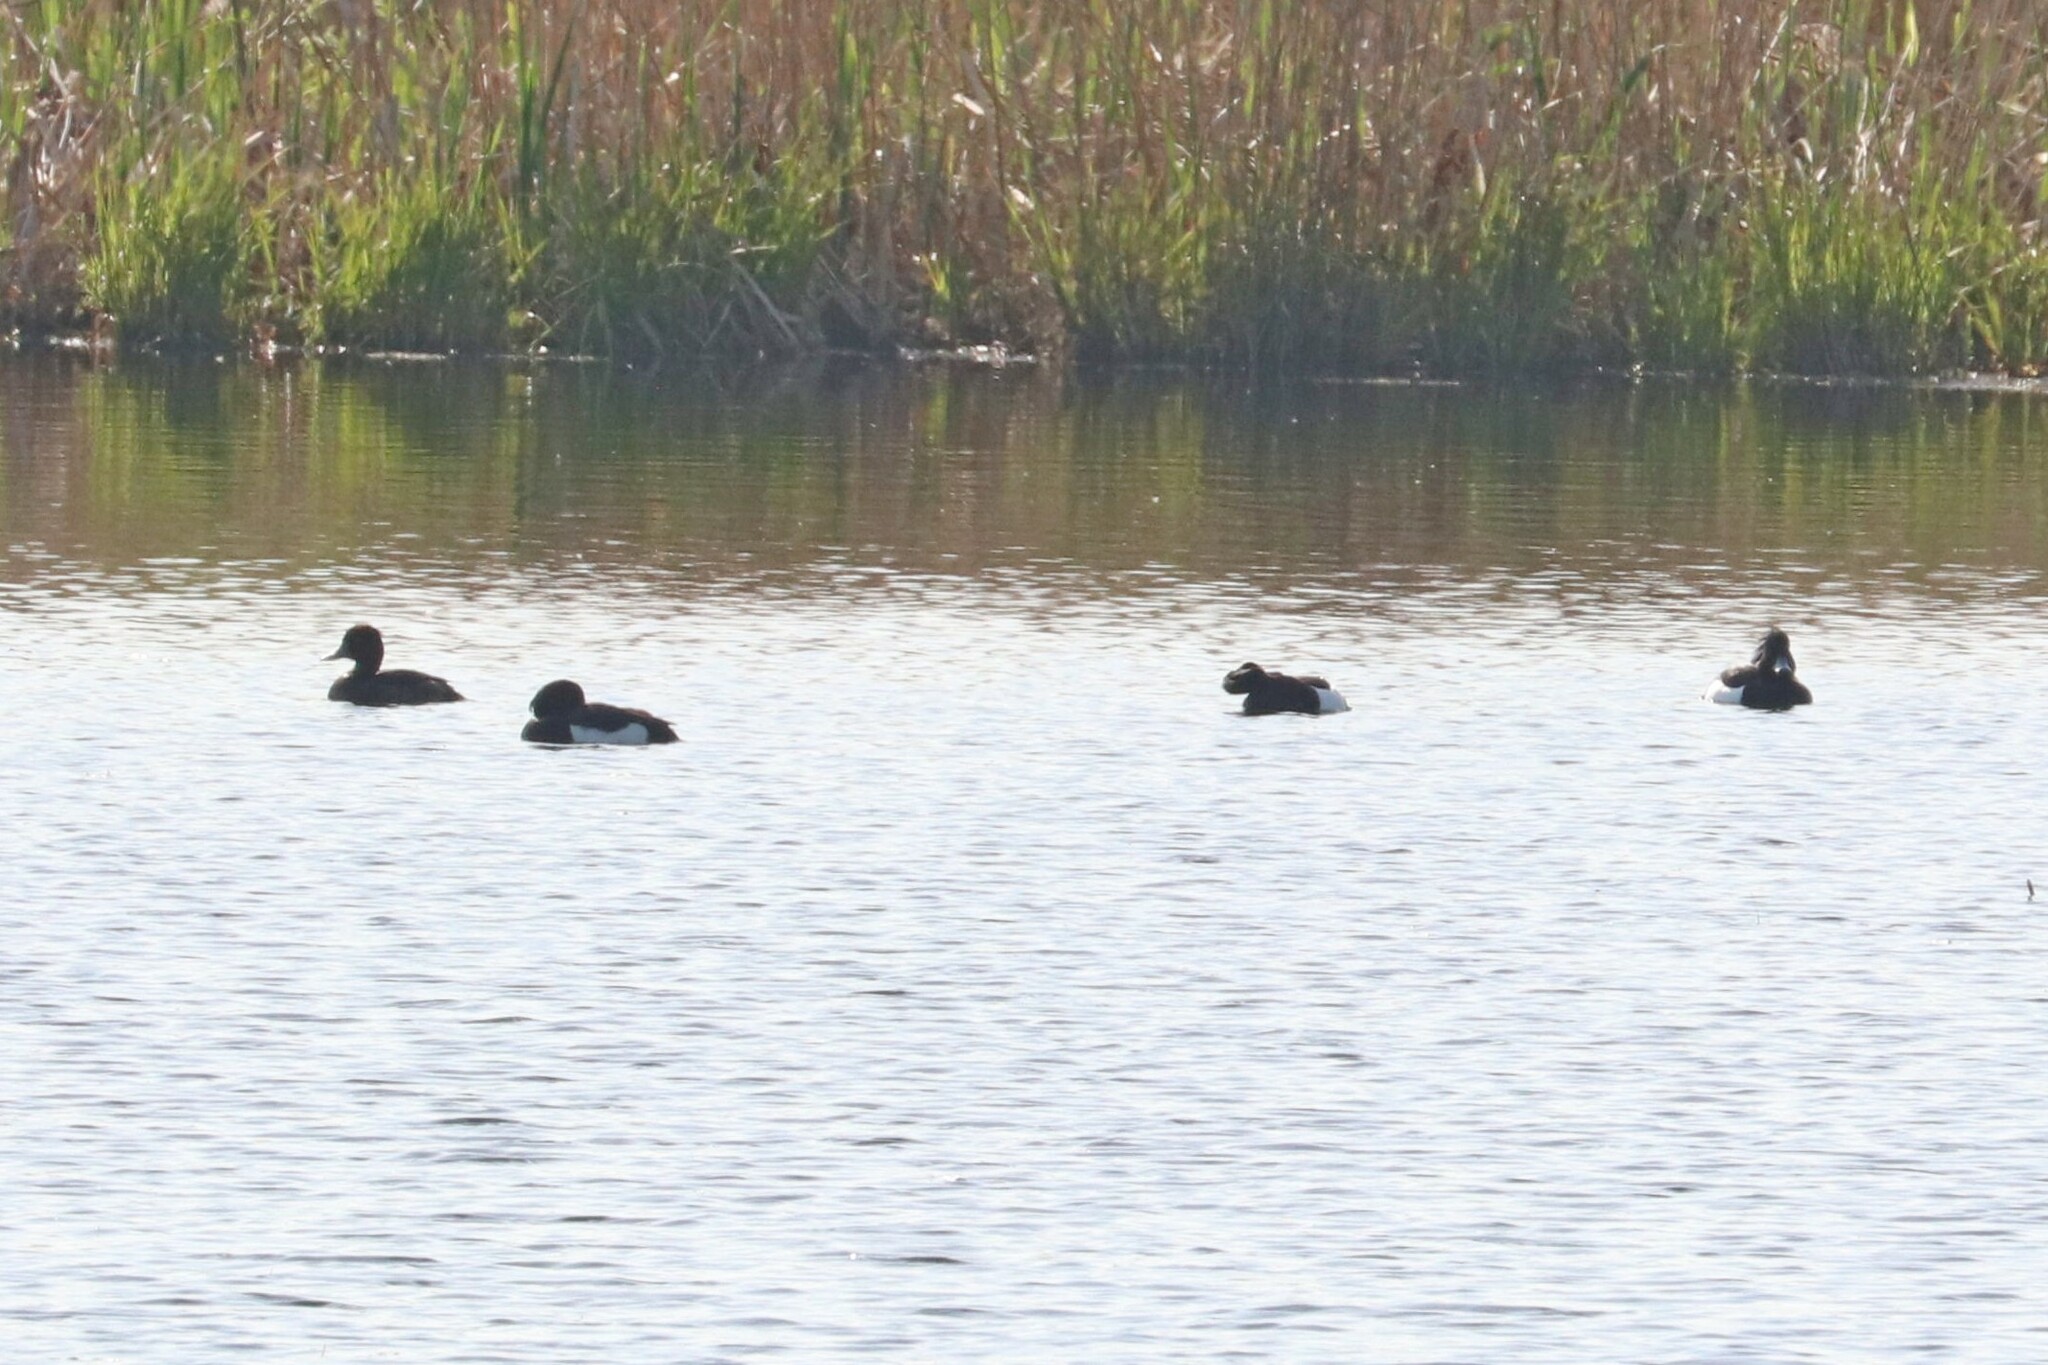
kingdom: Animalia
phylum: Chordata
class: Aves
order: Anseriformes
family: Anatidae
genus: Aythya
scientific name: Aythya fuligula
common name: Tufted duck
